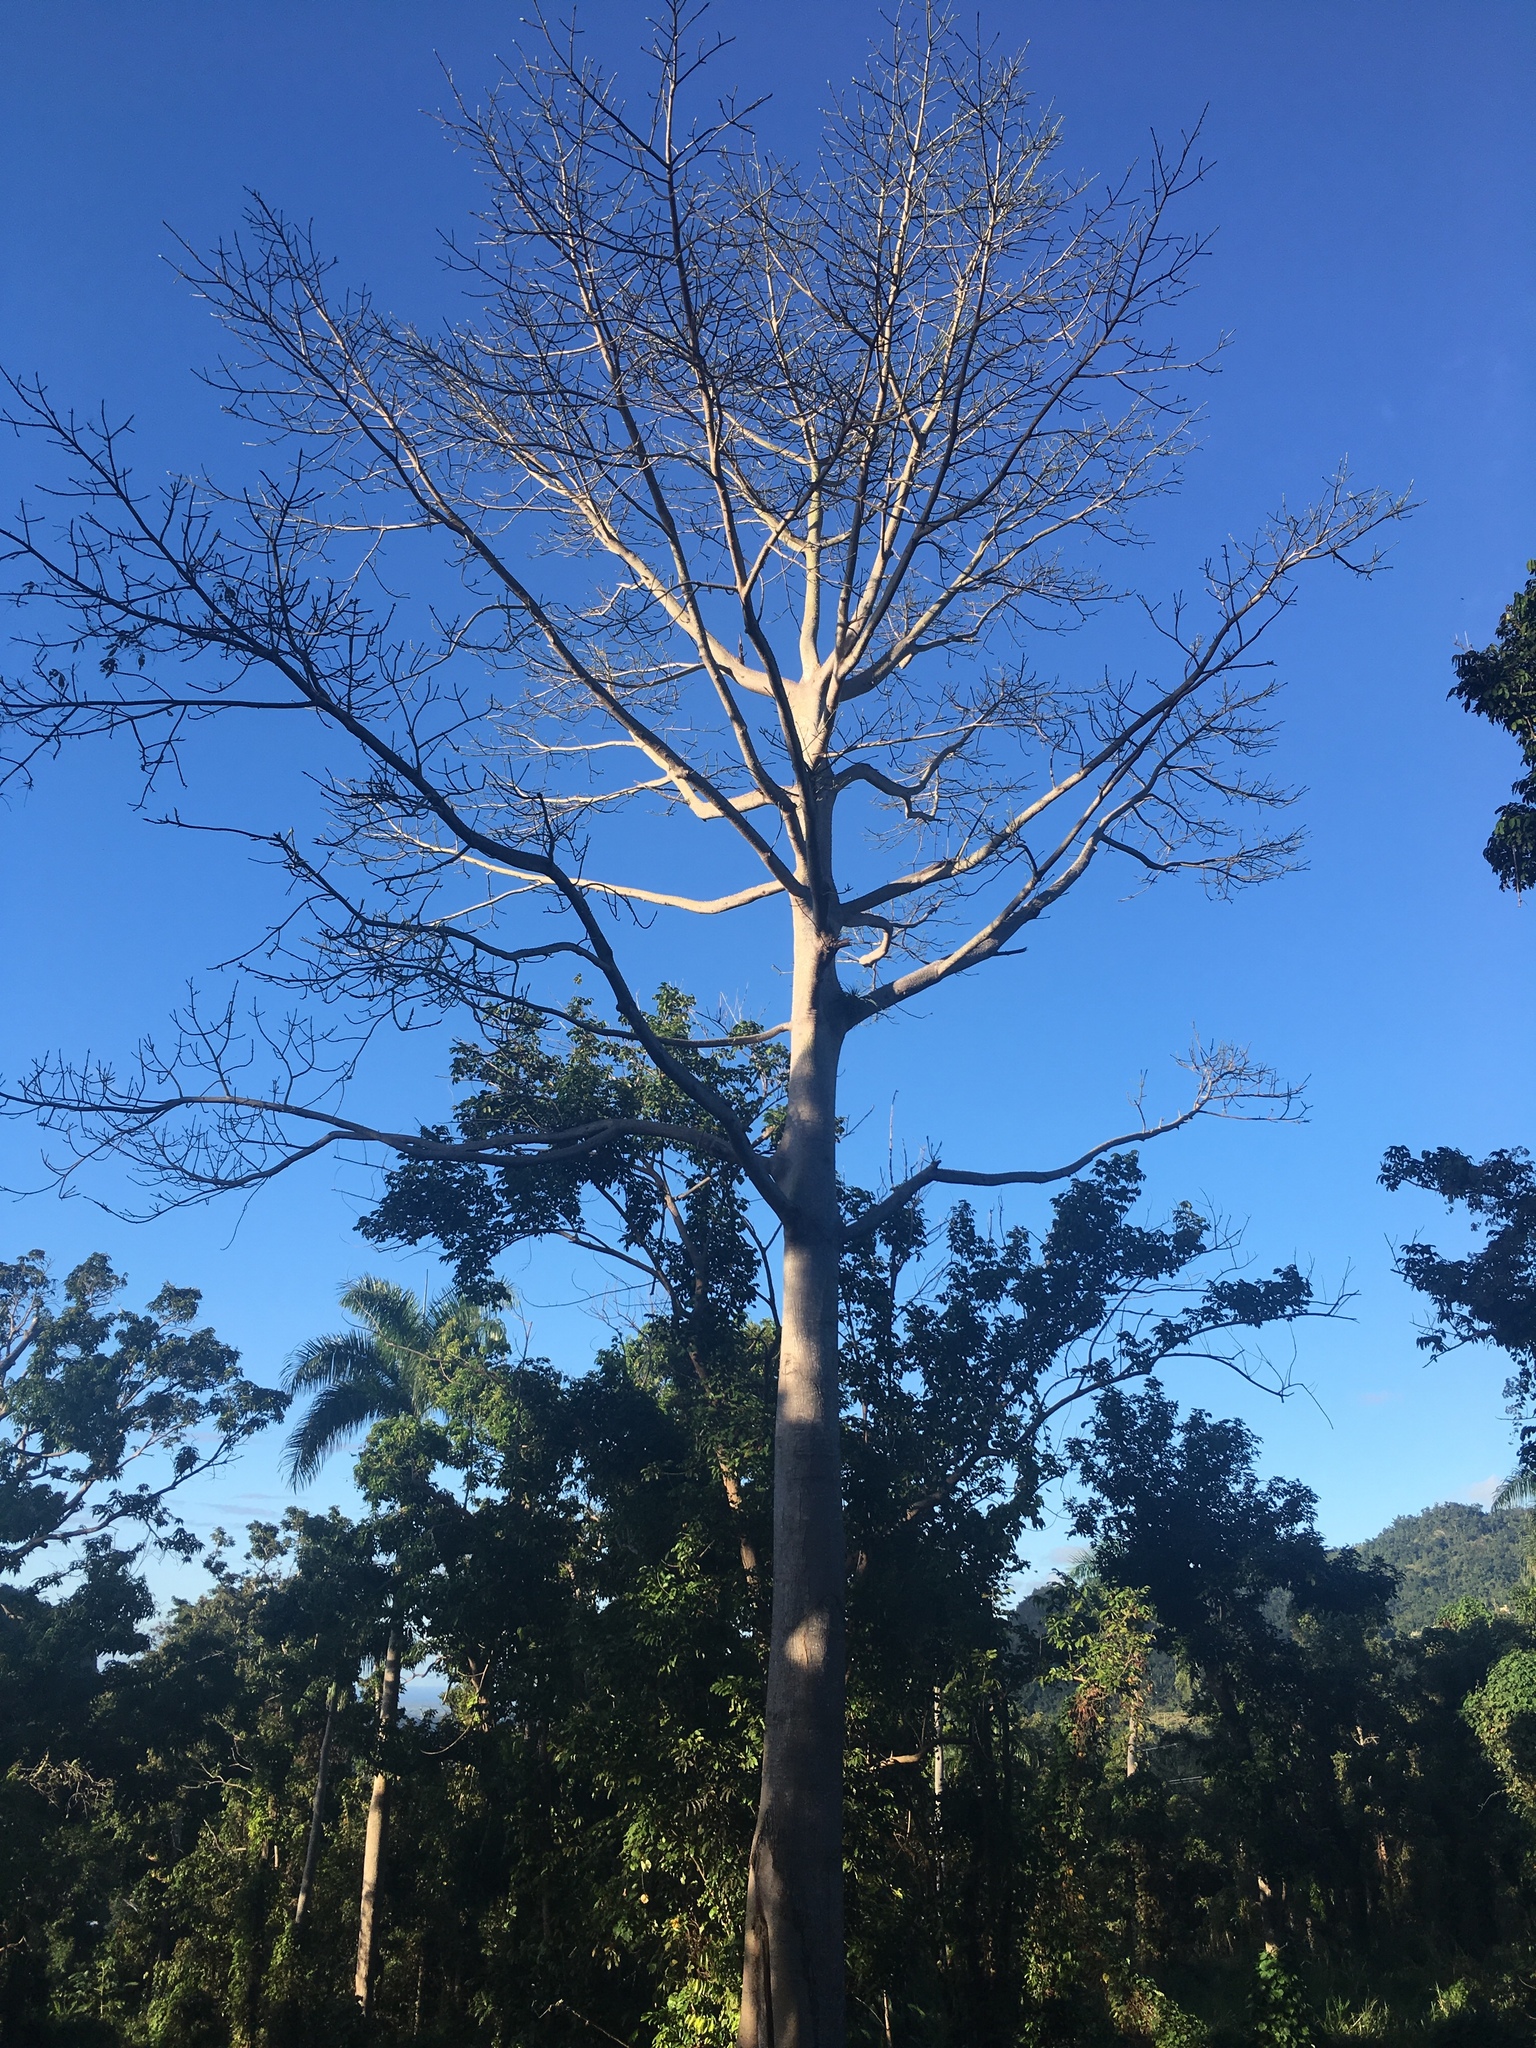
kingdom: Plantae
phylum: Tracheophyta
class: Magnoliopsida
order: Malvales
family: Malvaceae
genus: Ceiba
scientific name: Ceiba pentandra
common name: Kapok
